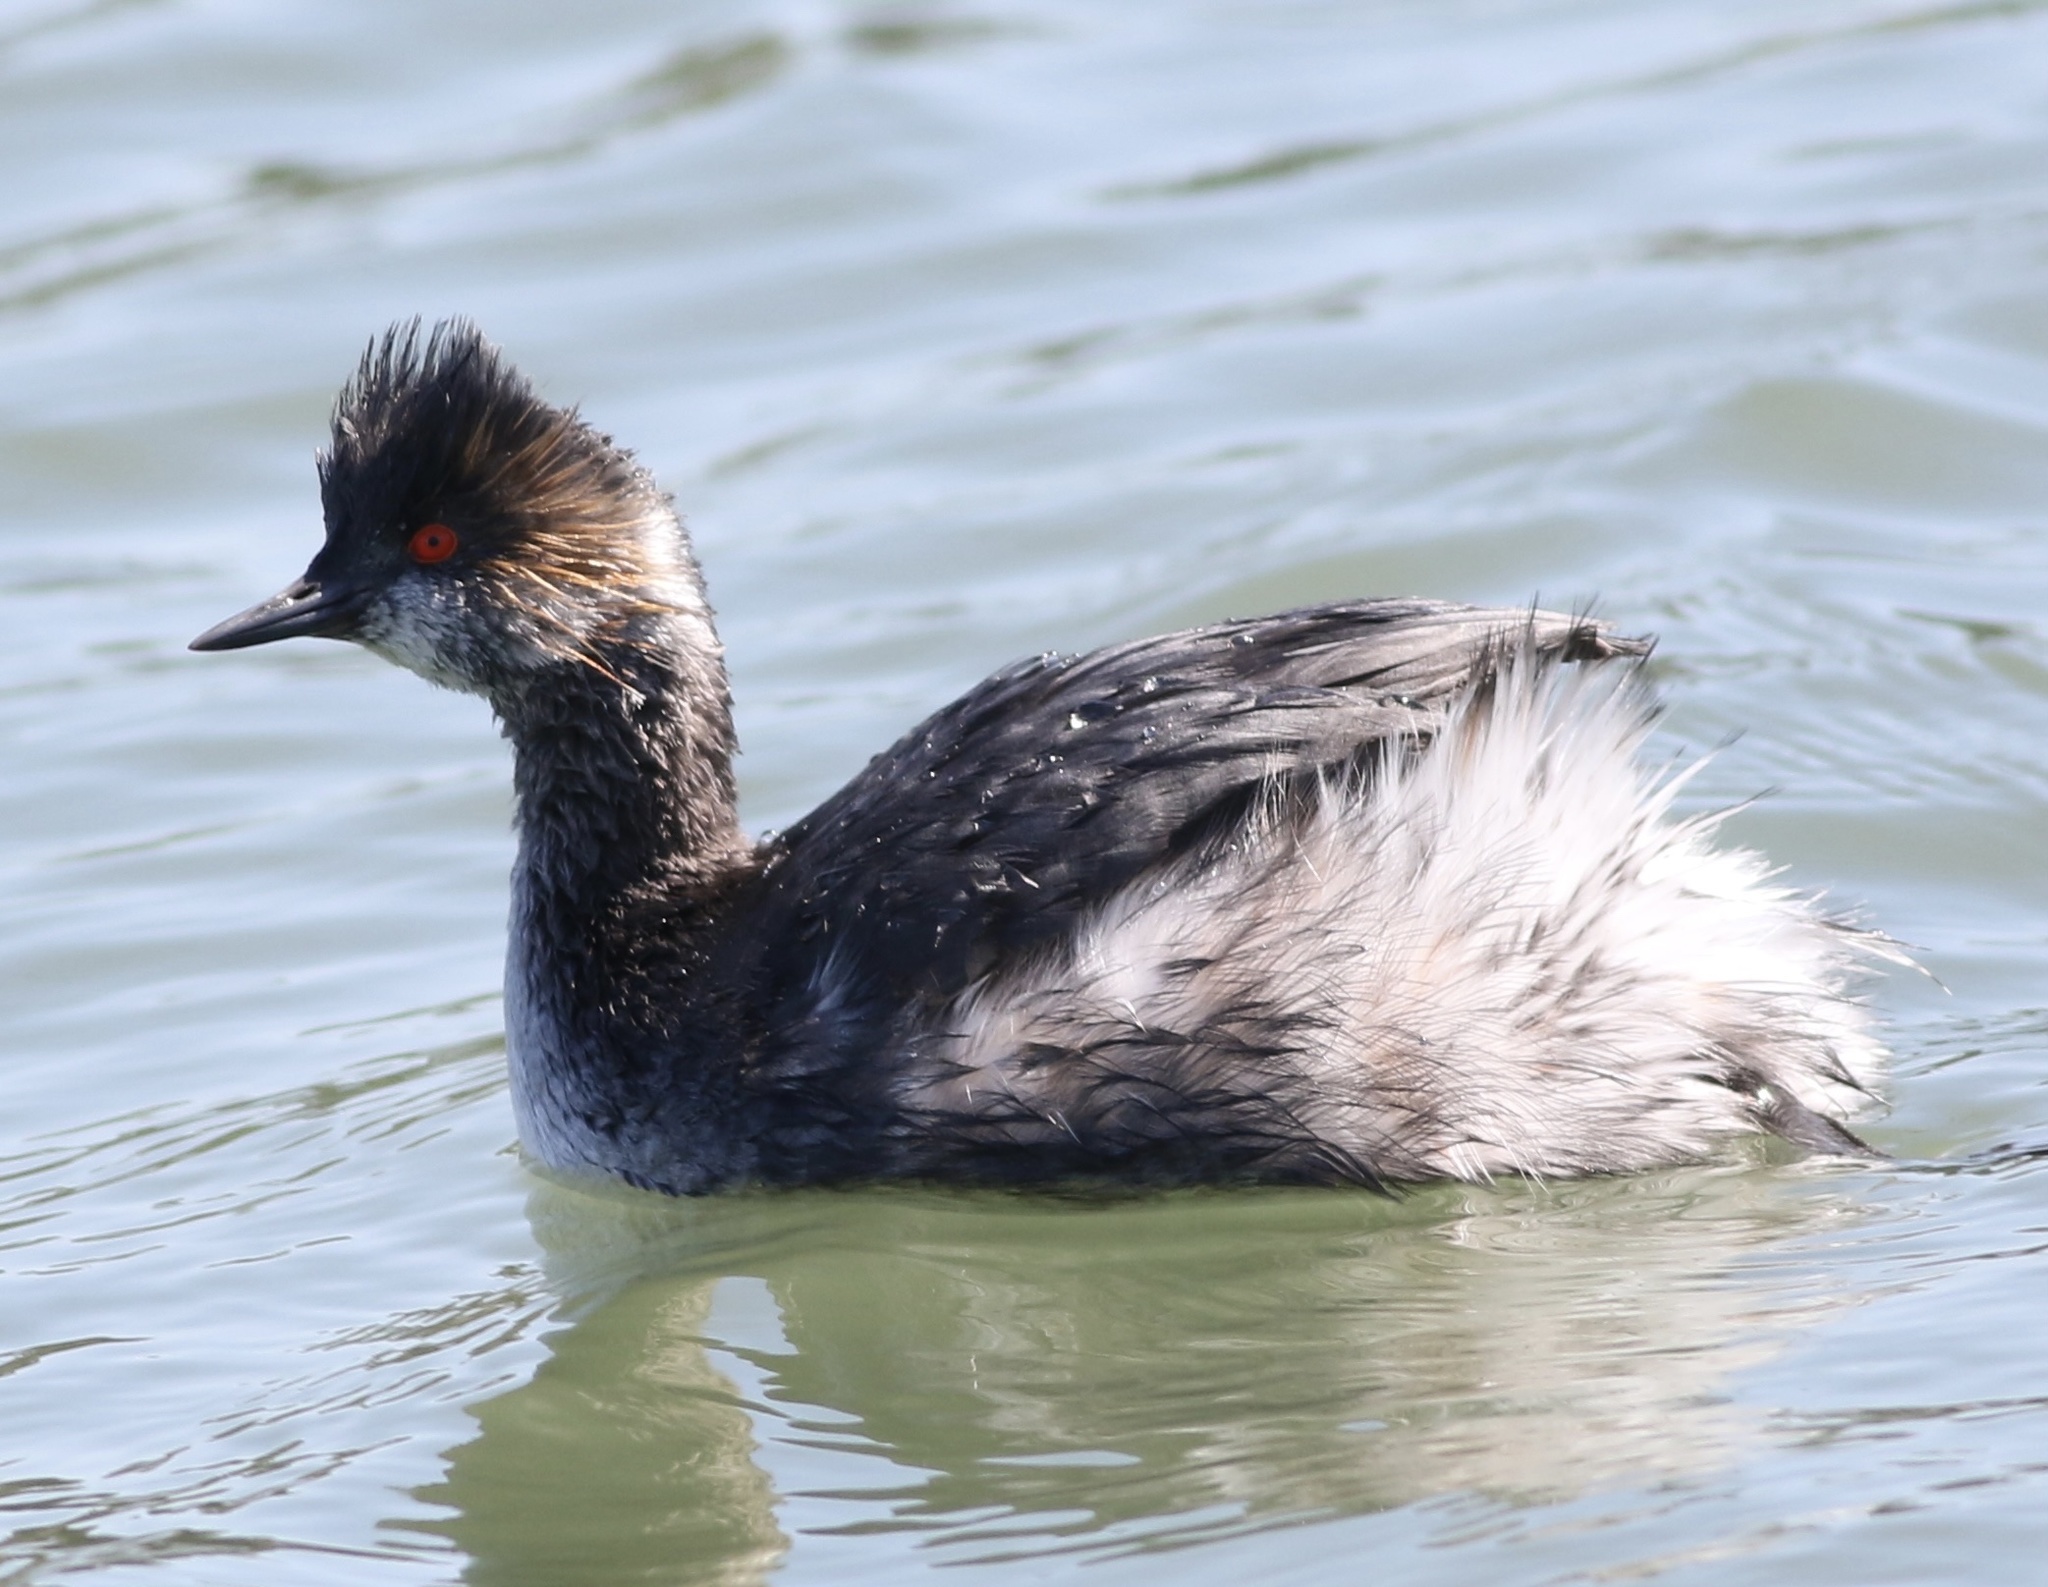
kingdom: Animalia
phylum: Chordata
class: Aves
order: Podicipediformes
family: Podicipedidae
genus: Podiceps
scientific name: Podiceps nigricollis
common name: Black-necked grebe
